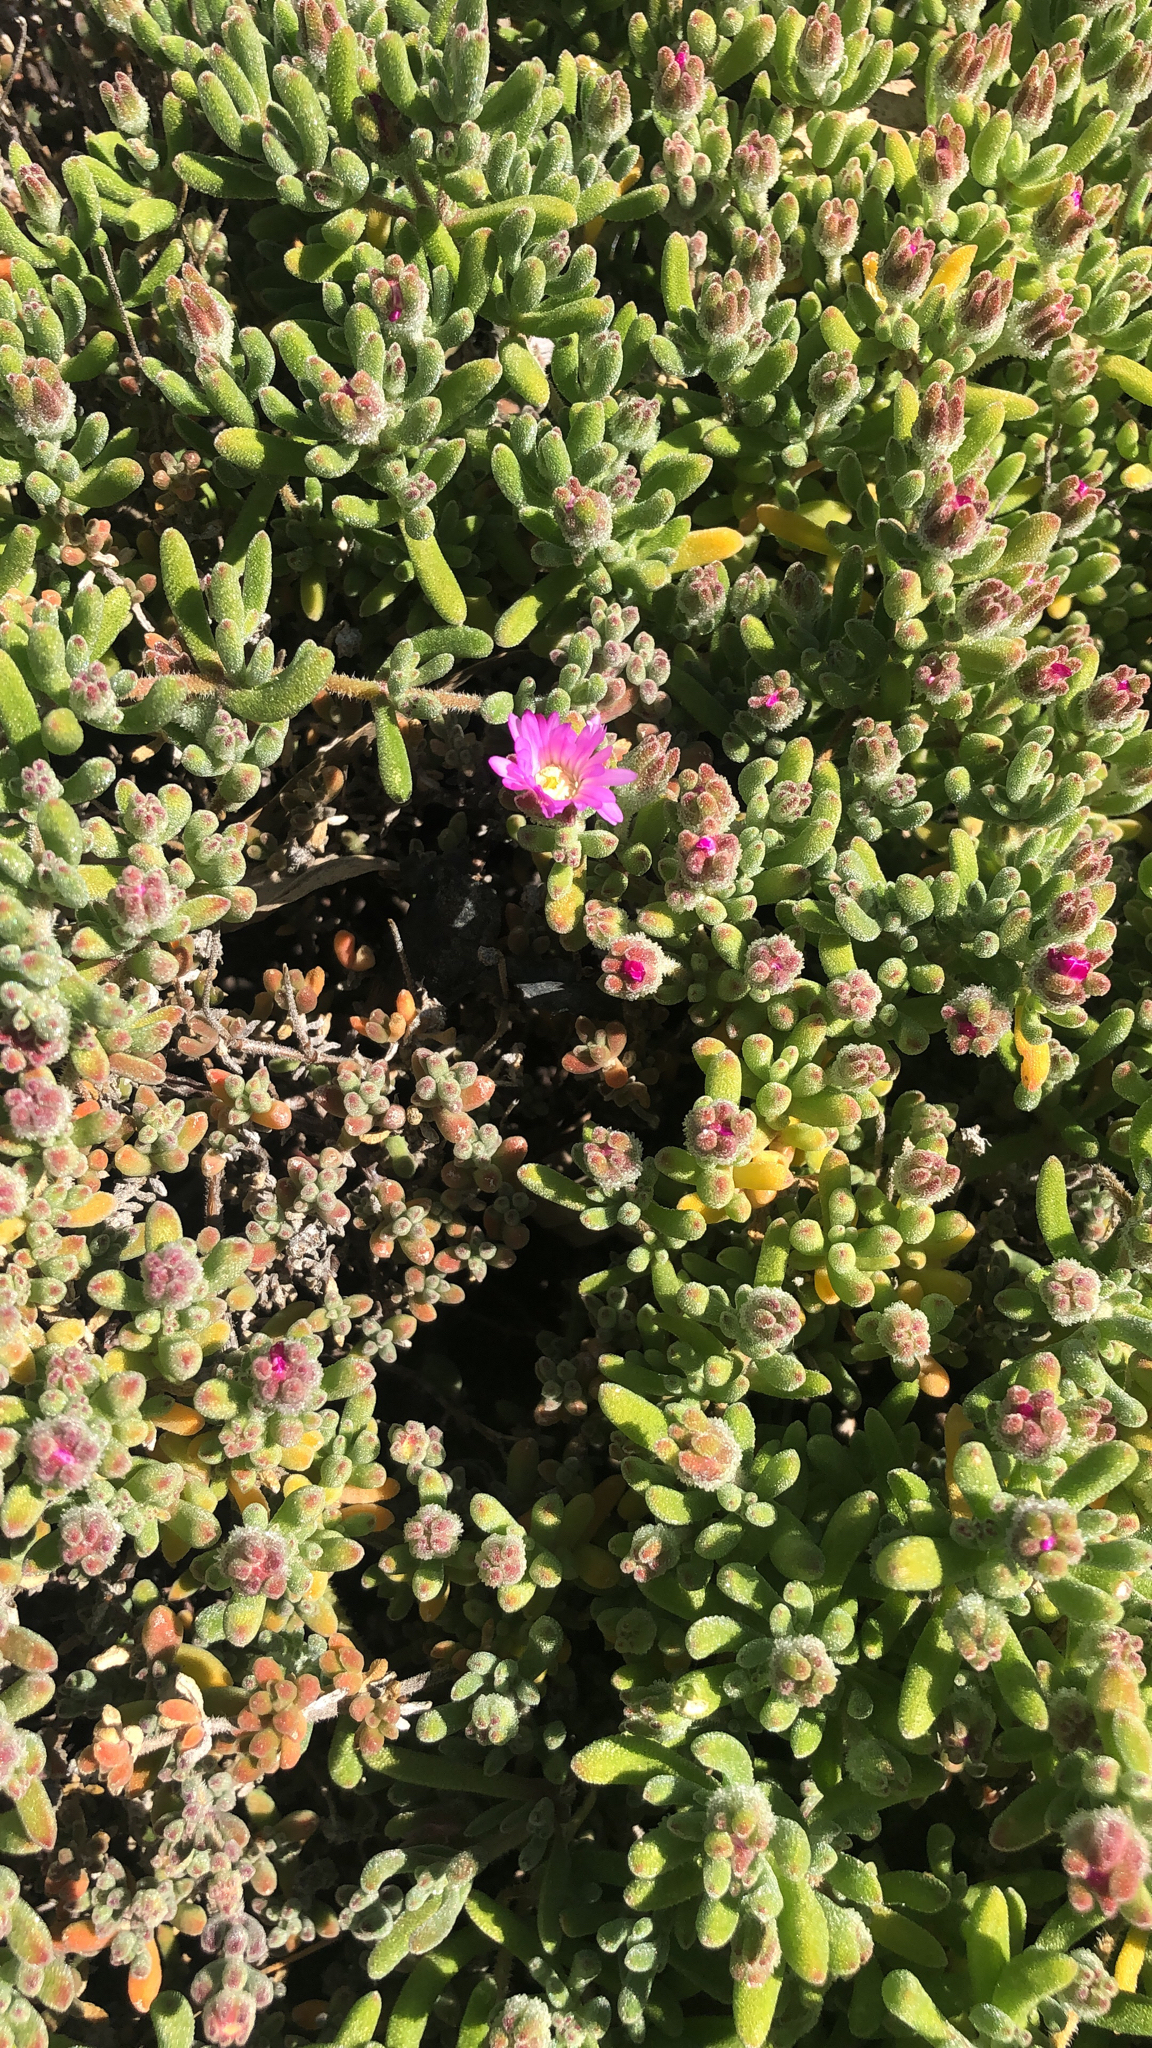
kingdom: Plantae
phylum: Tracheophyta
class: Magnoliopsida
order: Caryophyllales
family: Aizoaceae
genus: Drosanthemum
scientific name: Drosanthemum floribundum
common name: Pale dewplant
